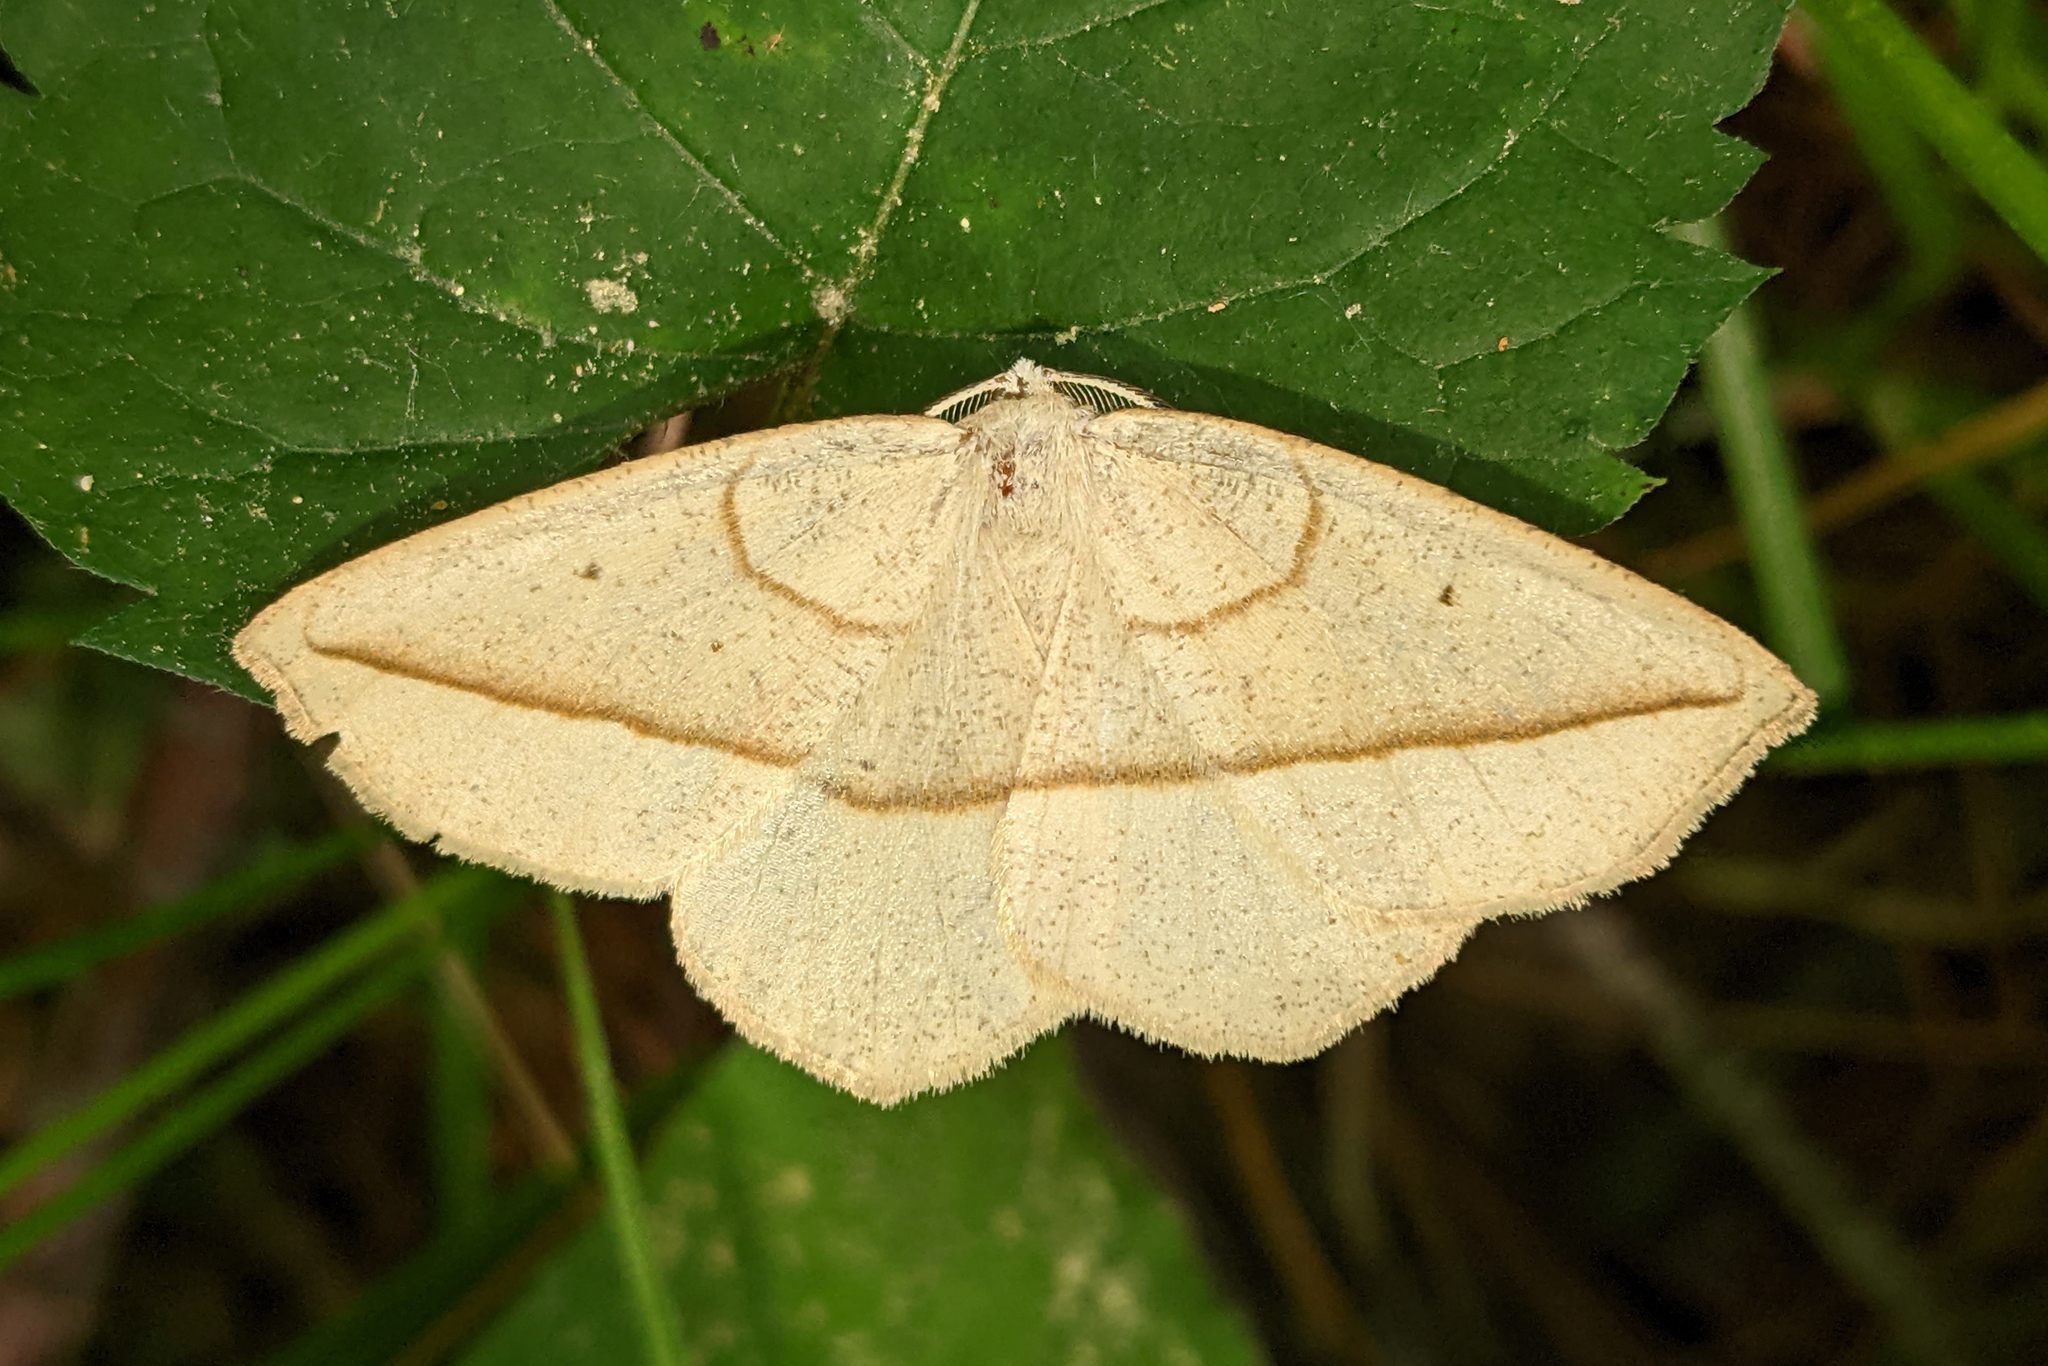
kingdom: Animalia
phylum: Arthropoda
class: Insecta
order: Lepidoptera
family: Geometridae
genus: Eusarca
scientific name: Eusarca confusaria
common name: Confused eusarca
